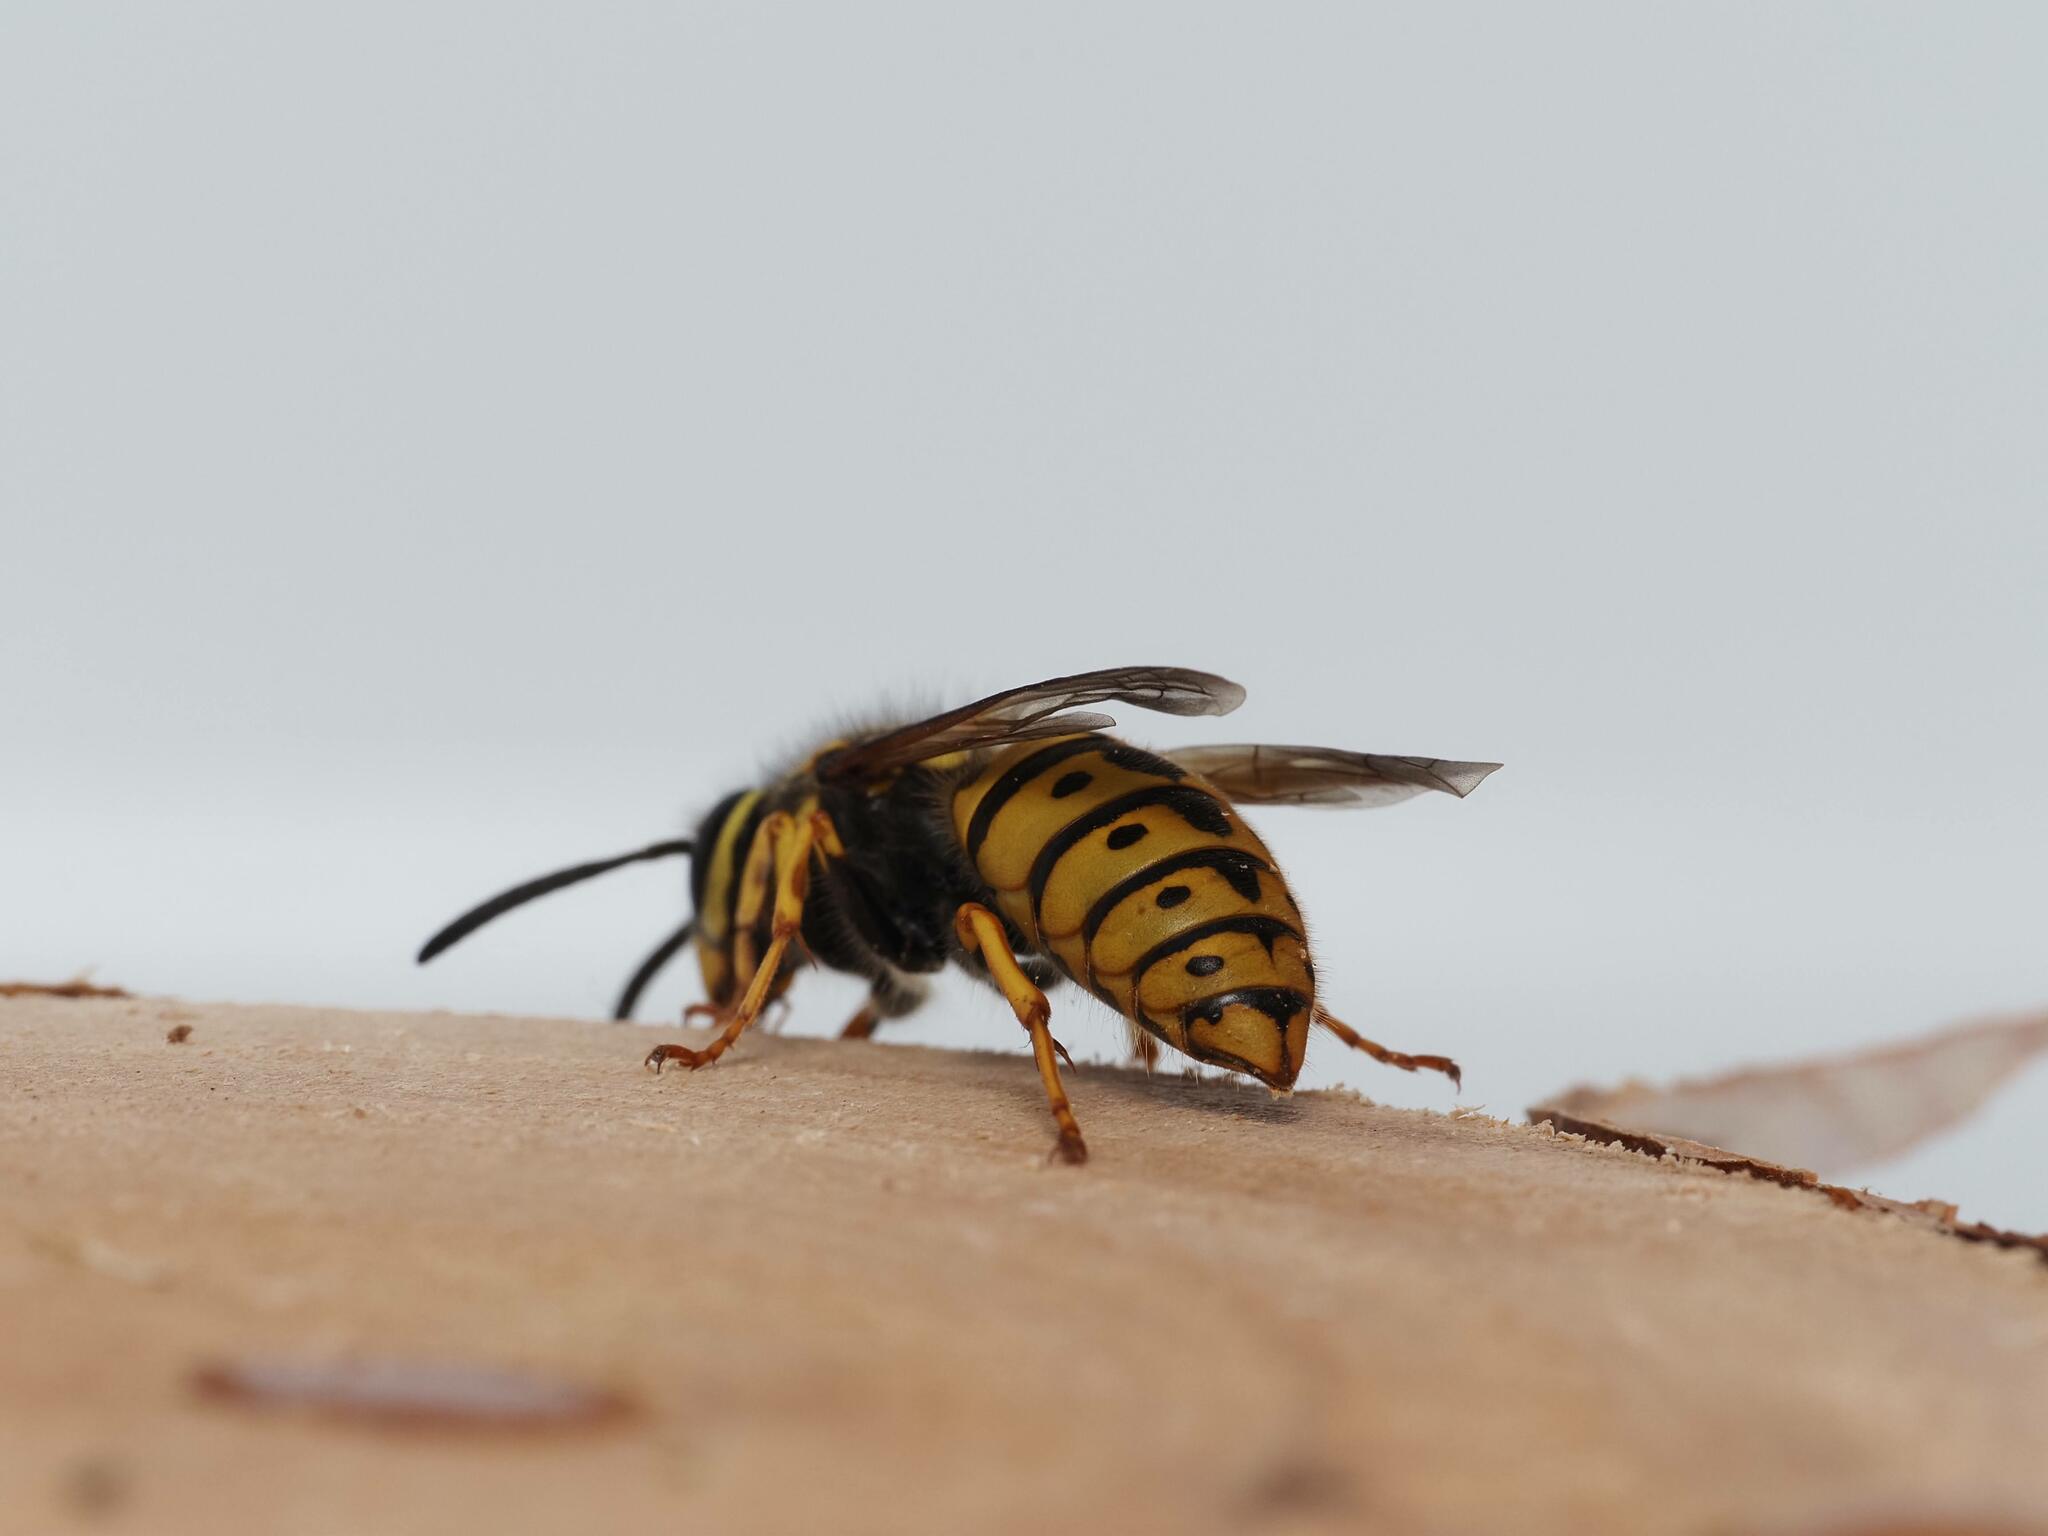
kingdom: Animalia
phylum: Arthropoda
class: Insecta
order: Hymenoptera
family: Vespidae
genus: Vespula
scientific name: Vespula germanica
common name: German wasp
